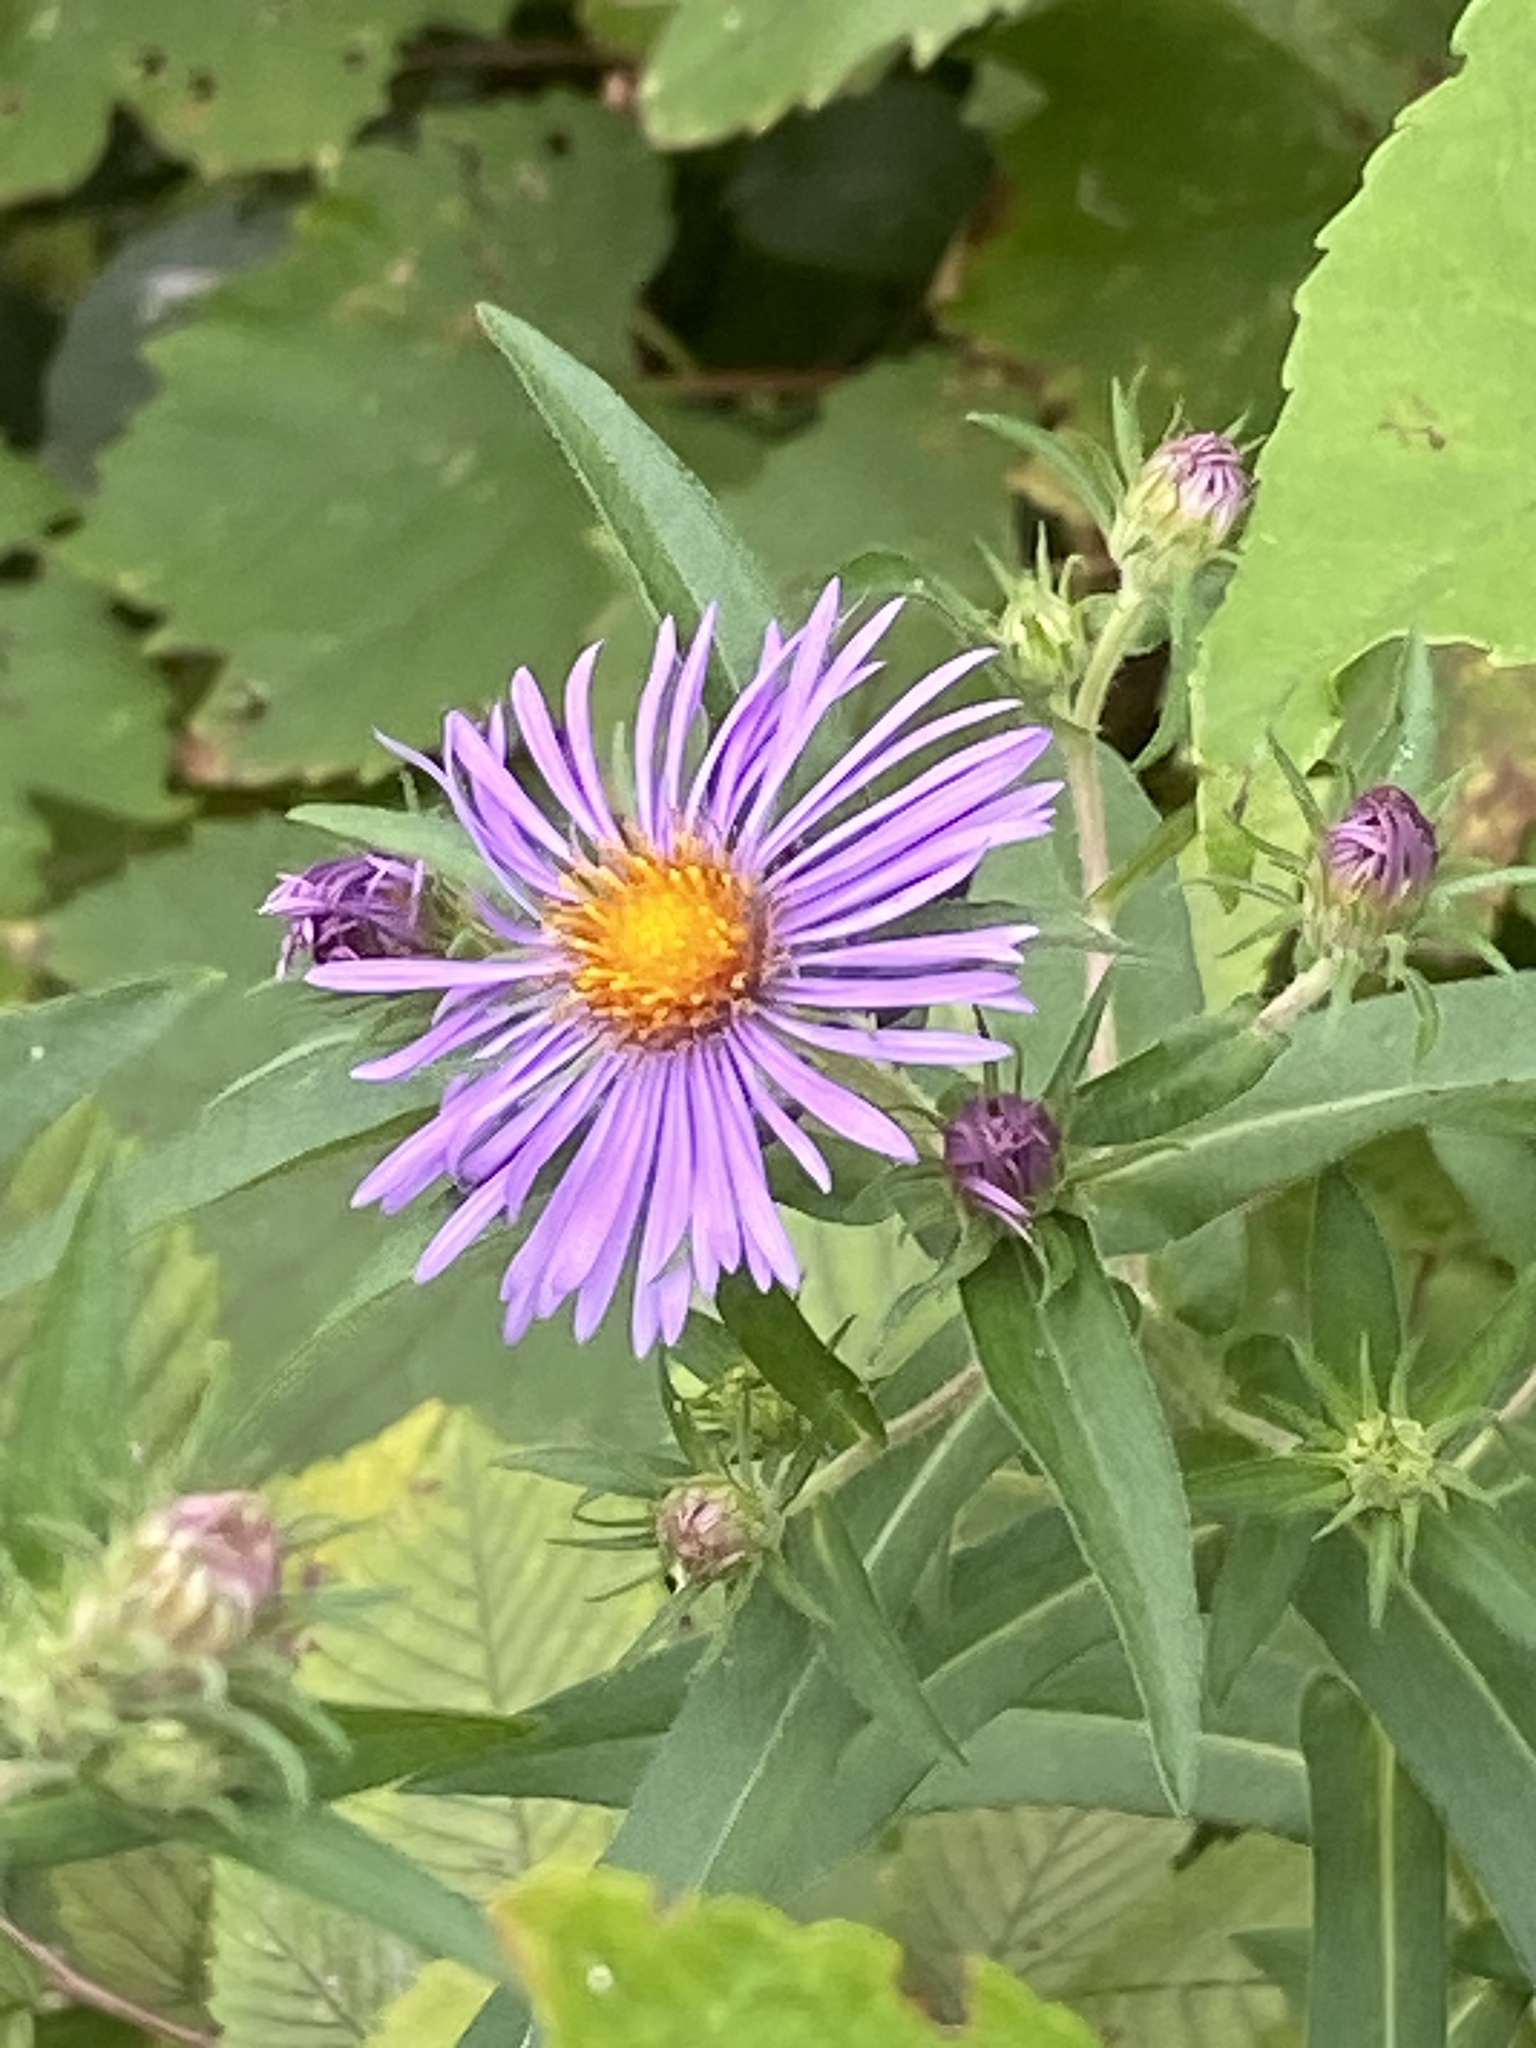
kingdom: Plantae
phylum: Tracheophyta
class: Magnoliopsida
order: Asterales
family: Asteraceae
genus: Symphyotrichum
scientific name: Symphyotrichum novae-angliae
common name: Michaelmas daisy
